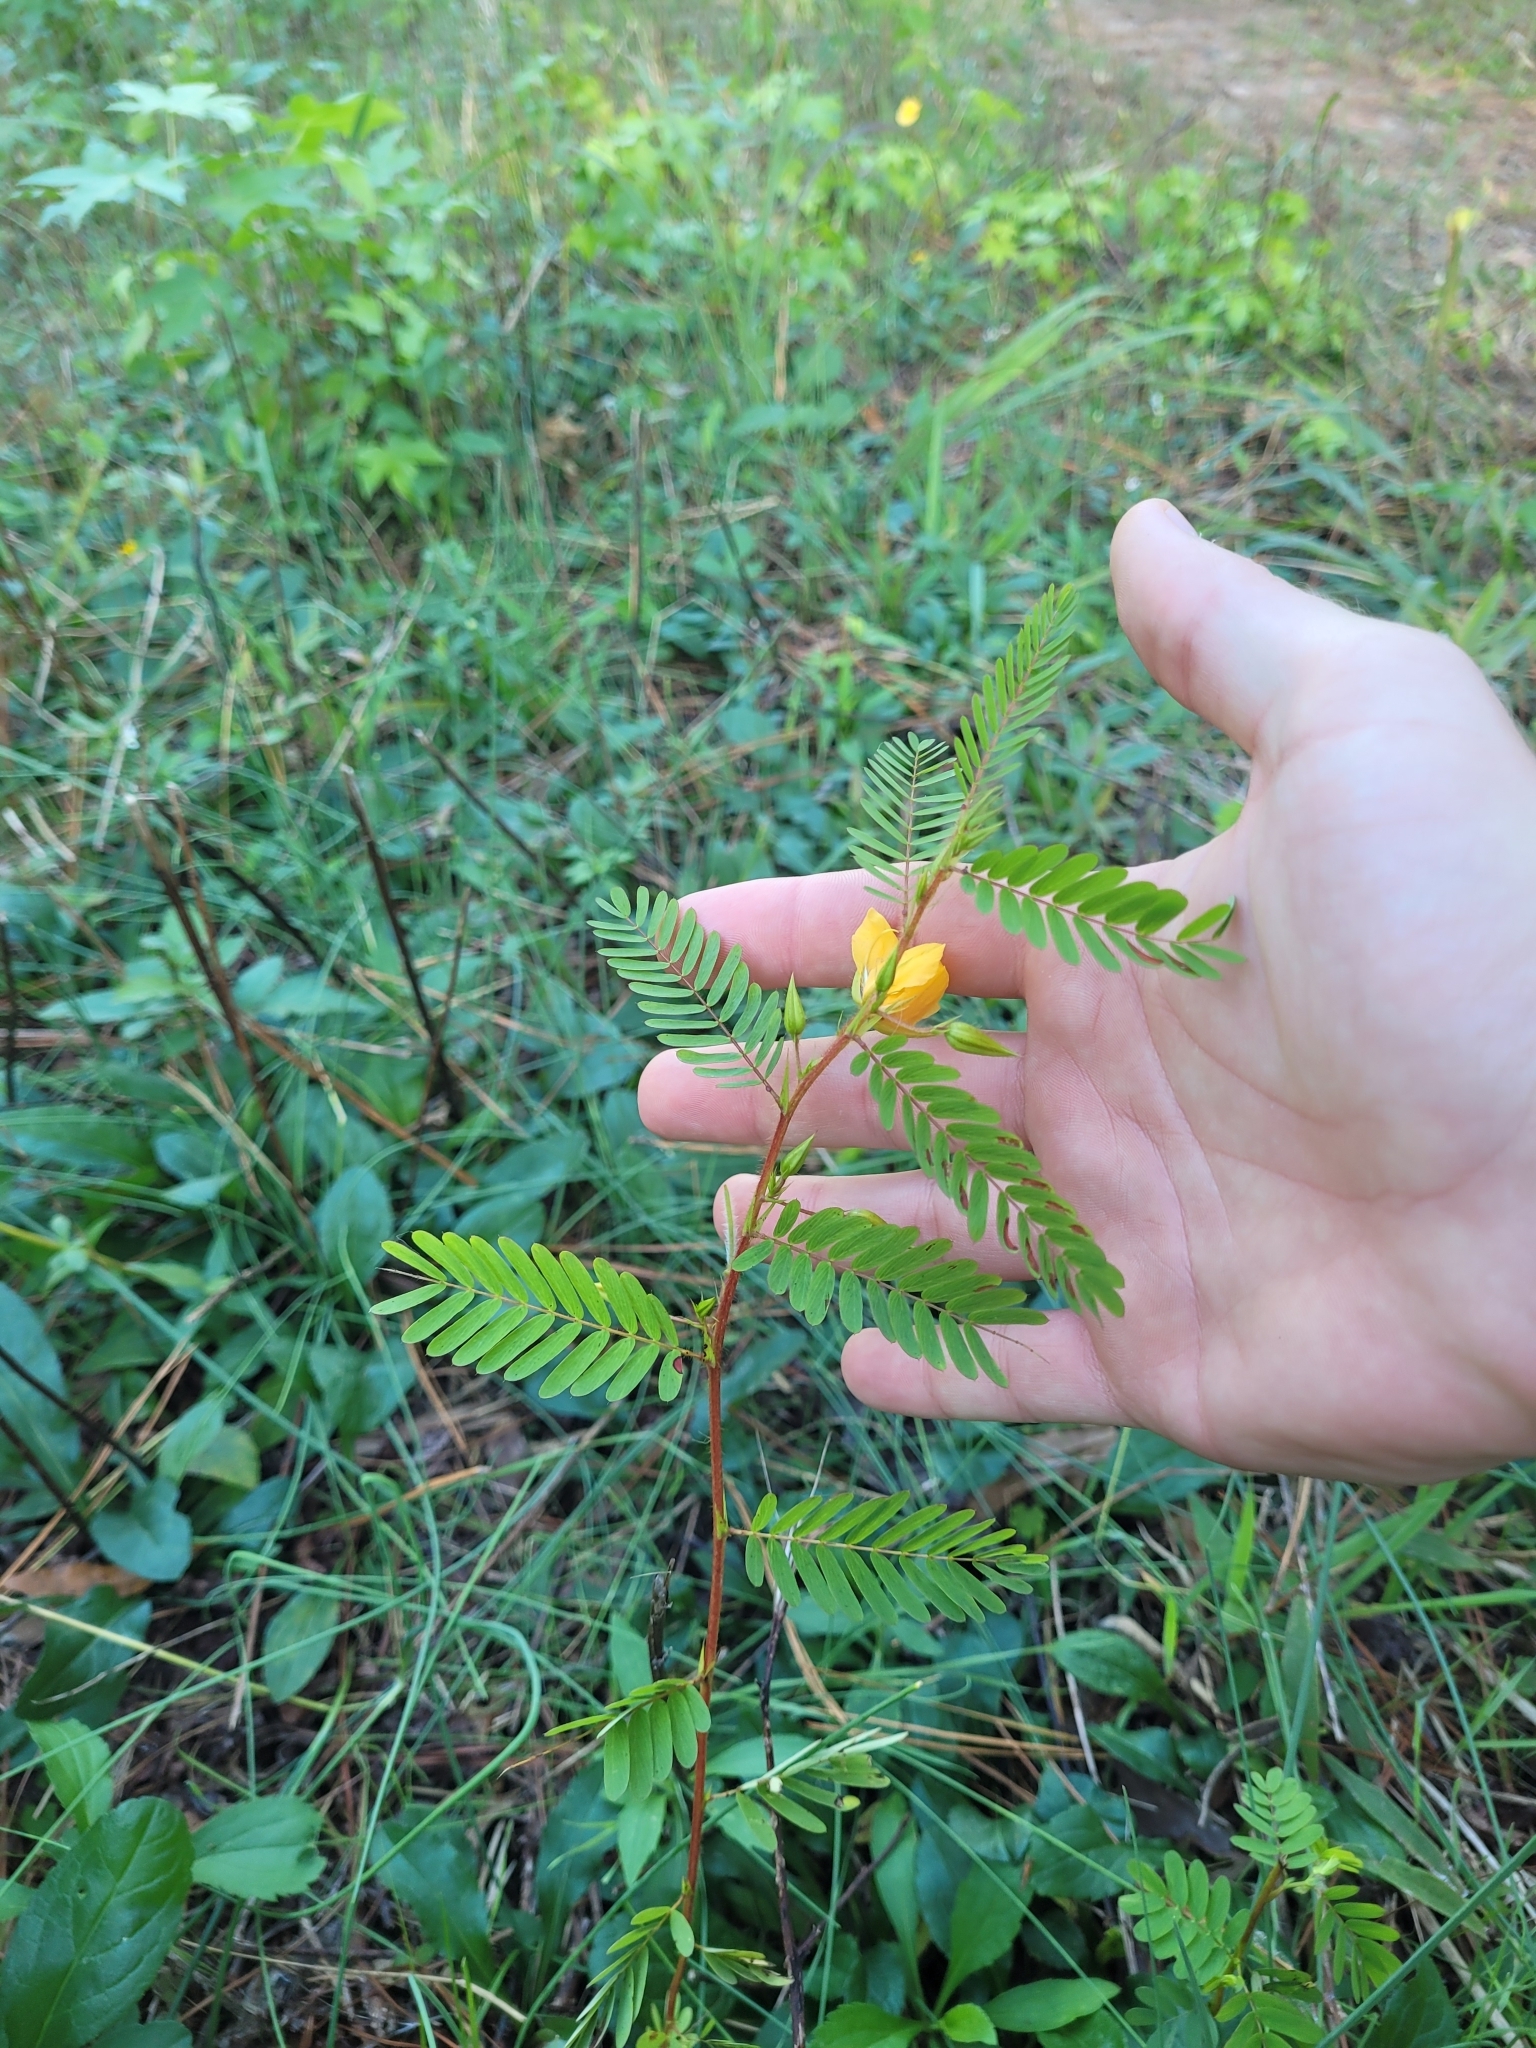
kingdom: Plantae
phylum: Tracheophyta
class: Magnoliopsida
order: Fabales
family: Fabaceae
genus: Chamaecrista
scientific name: Chamaecrista fasciculata
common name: Golden cassia
